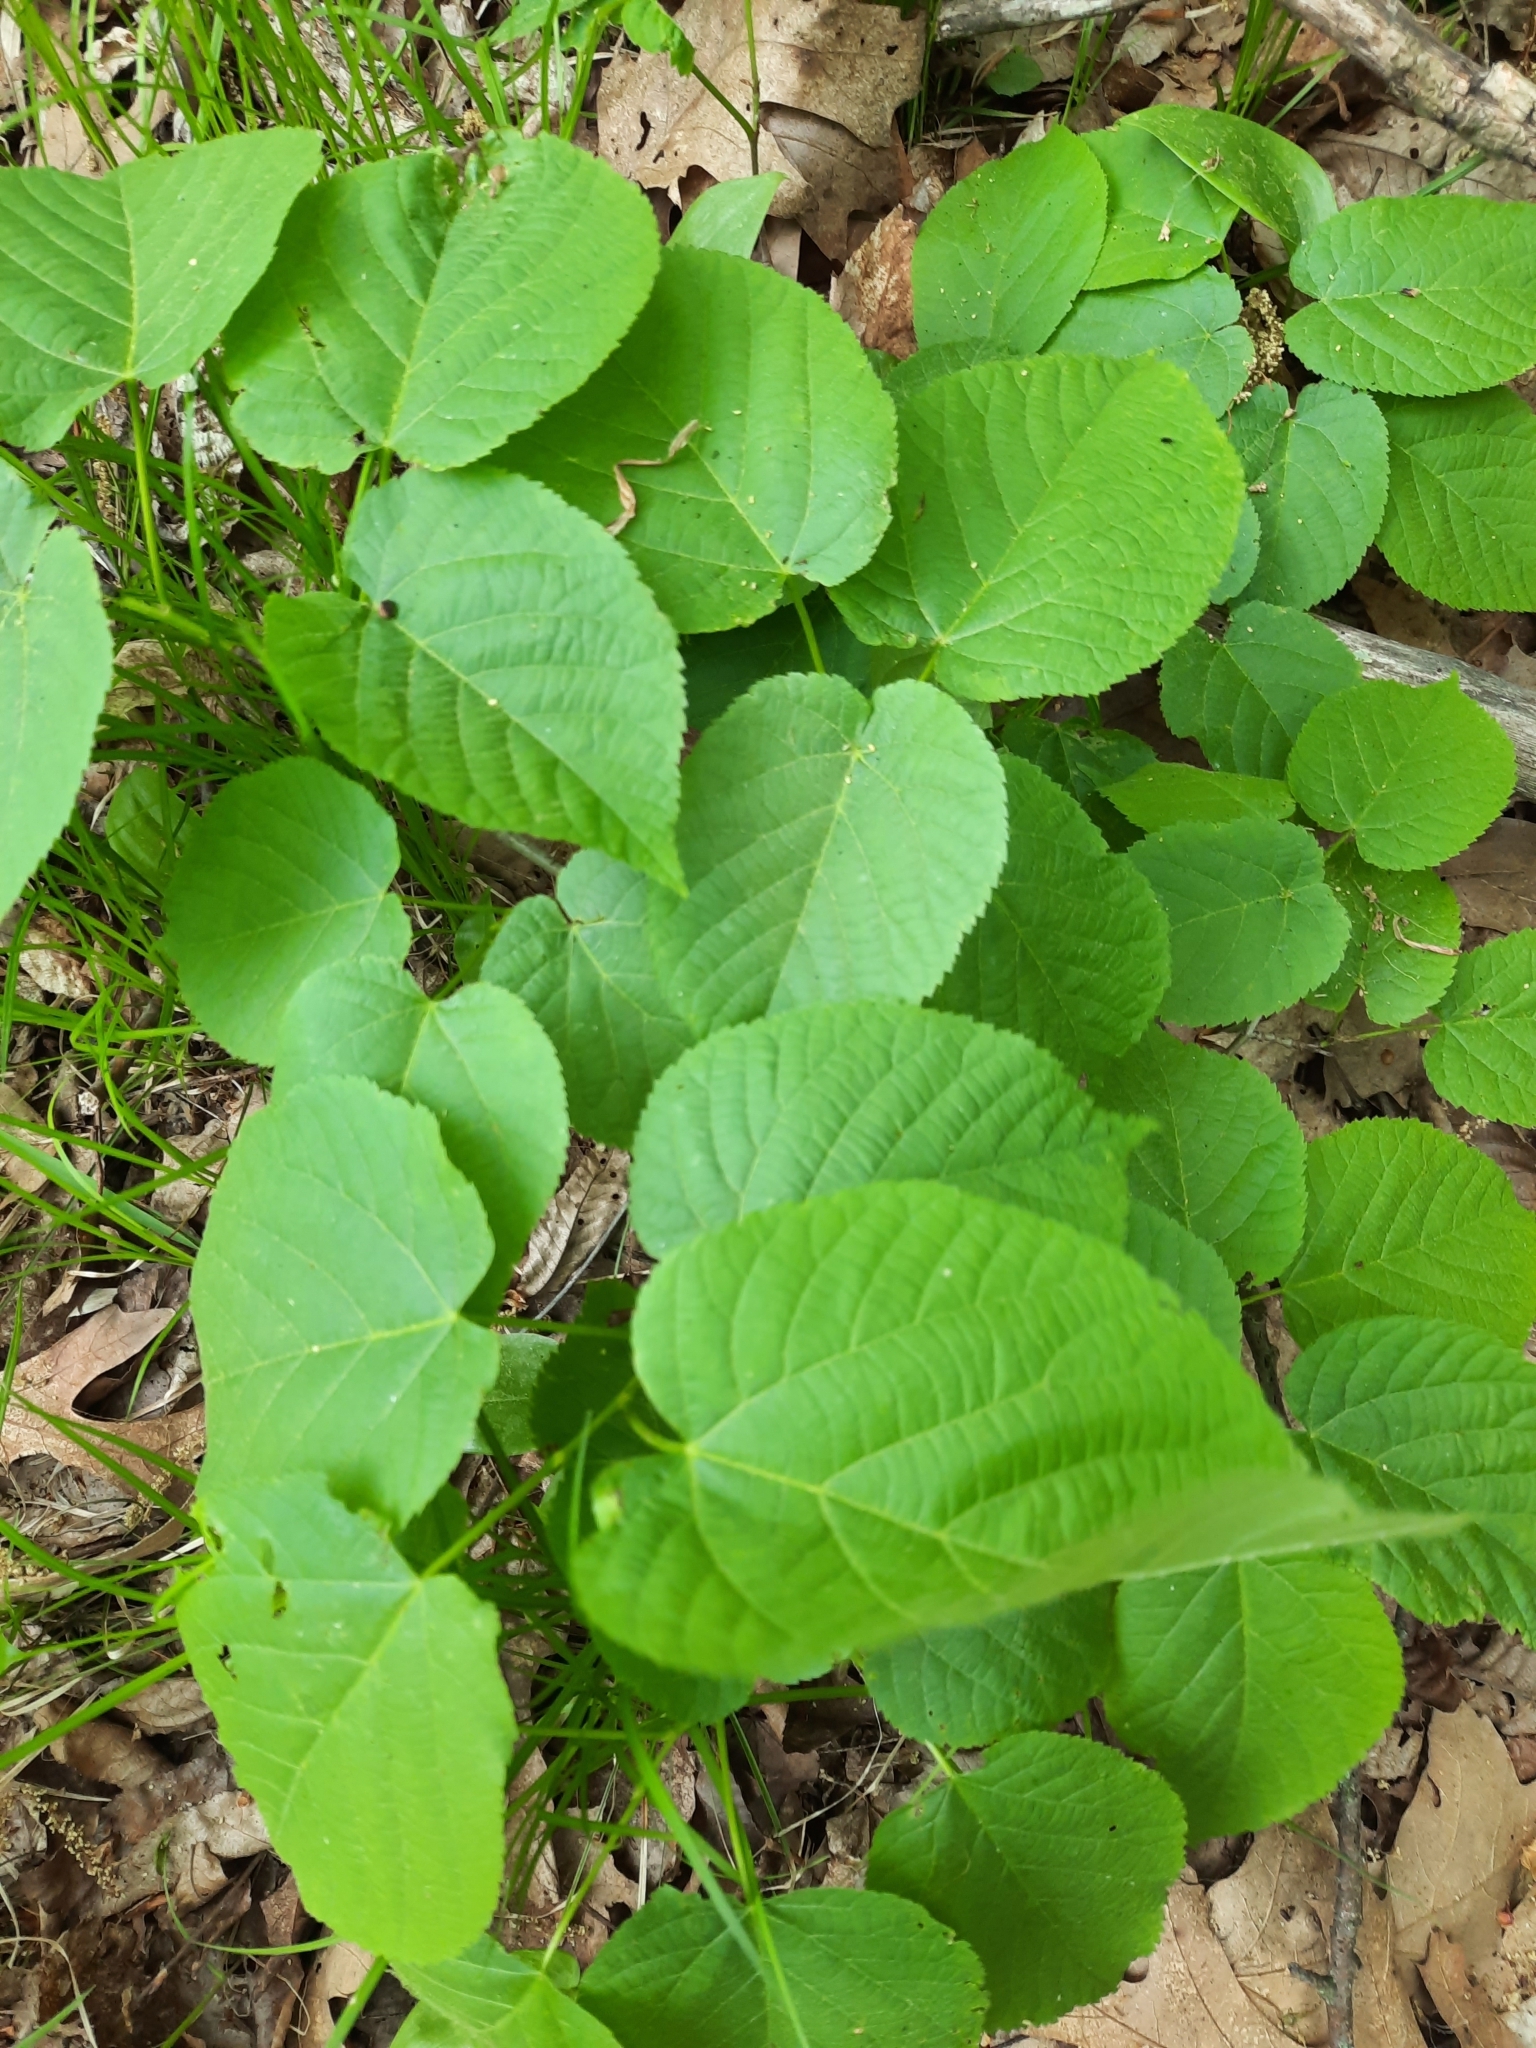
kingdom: Plantae
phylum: Tracheophyta
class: Magnoliopsida
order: Malvales
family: Malvaceae
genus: Tilia
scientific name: Tilia americana
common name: Basswood
